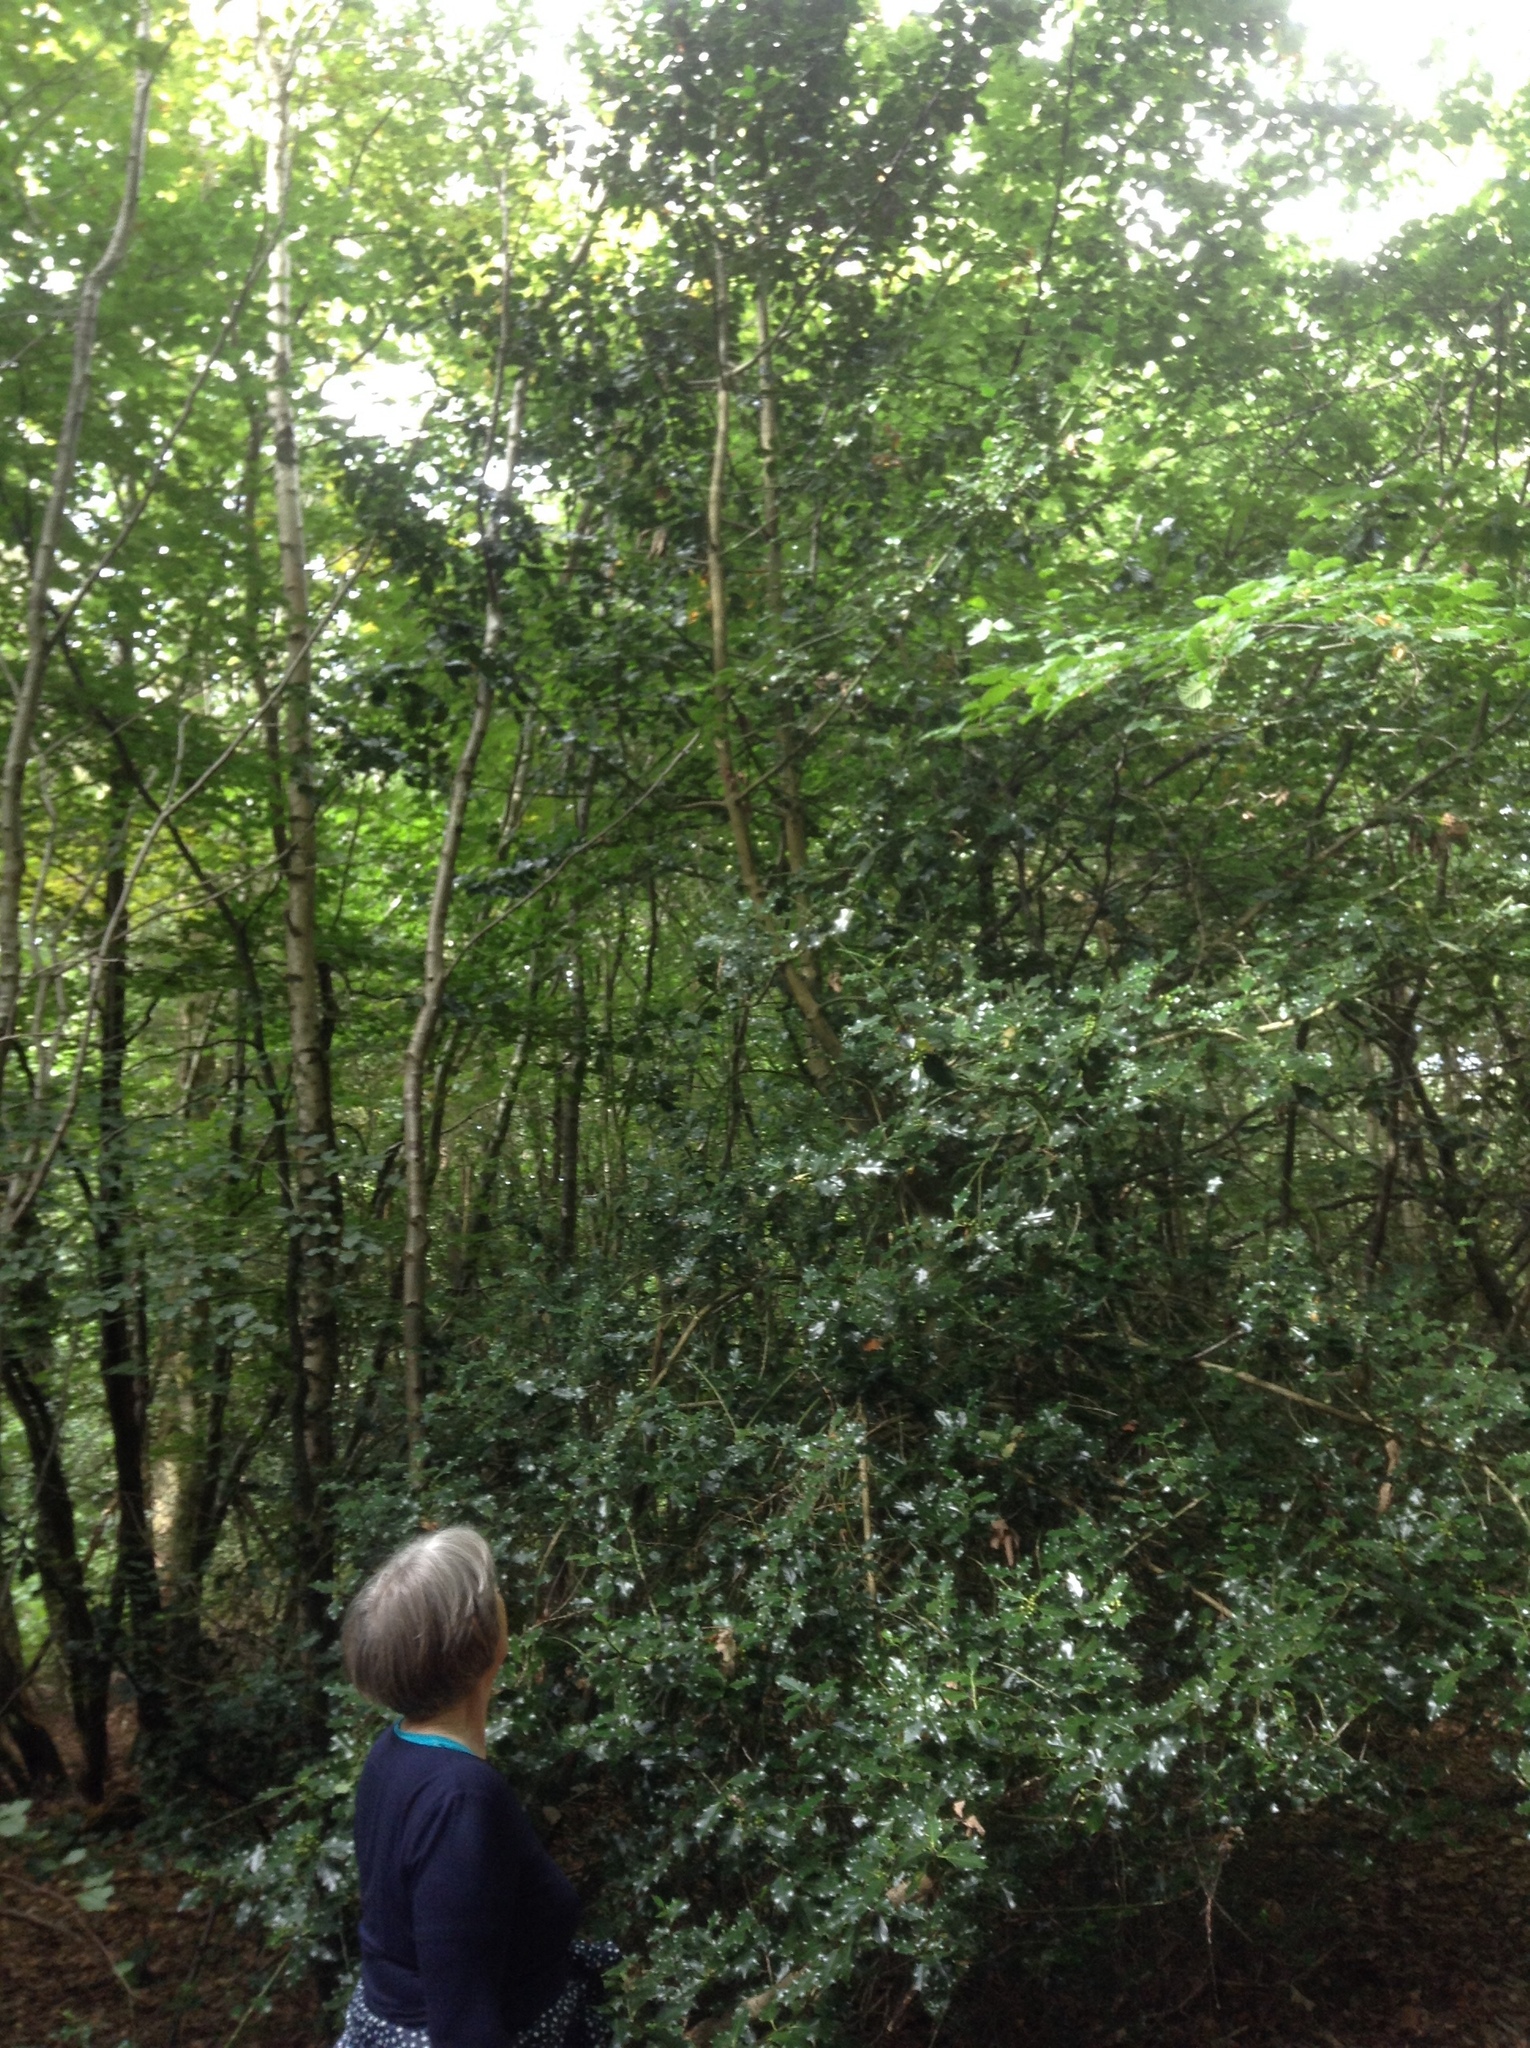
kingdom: Plantae
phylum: Tracheophyta
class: Magnoliopsida
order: Aquifoliales
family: Aquifoliaceae
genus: Ilex
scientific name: Ilex aquifolium
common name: English holly
